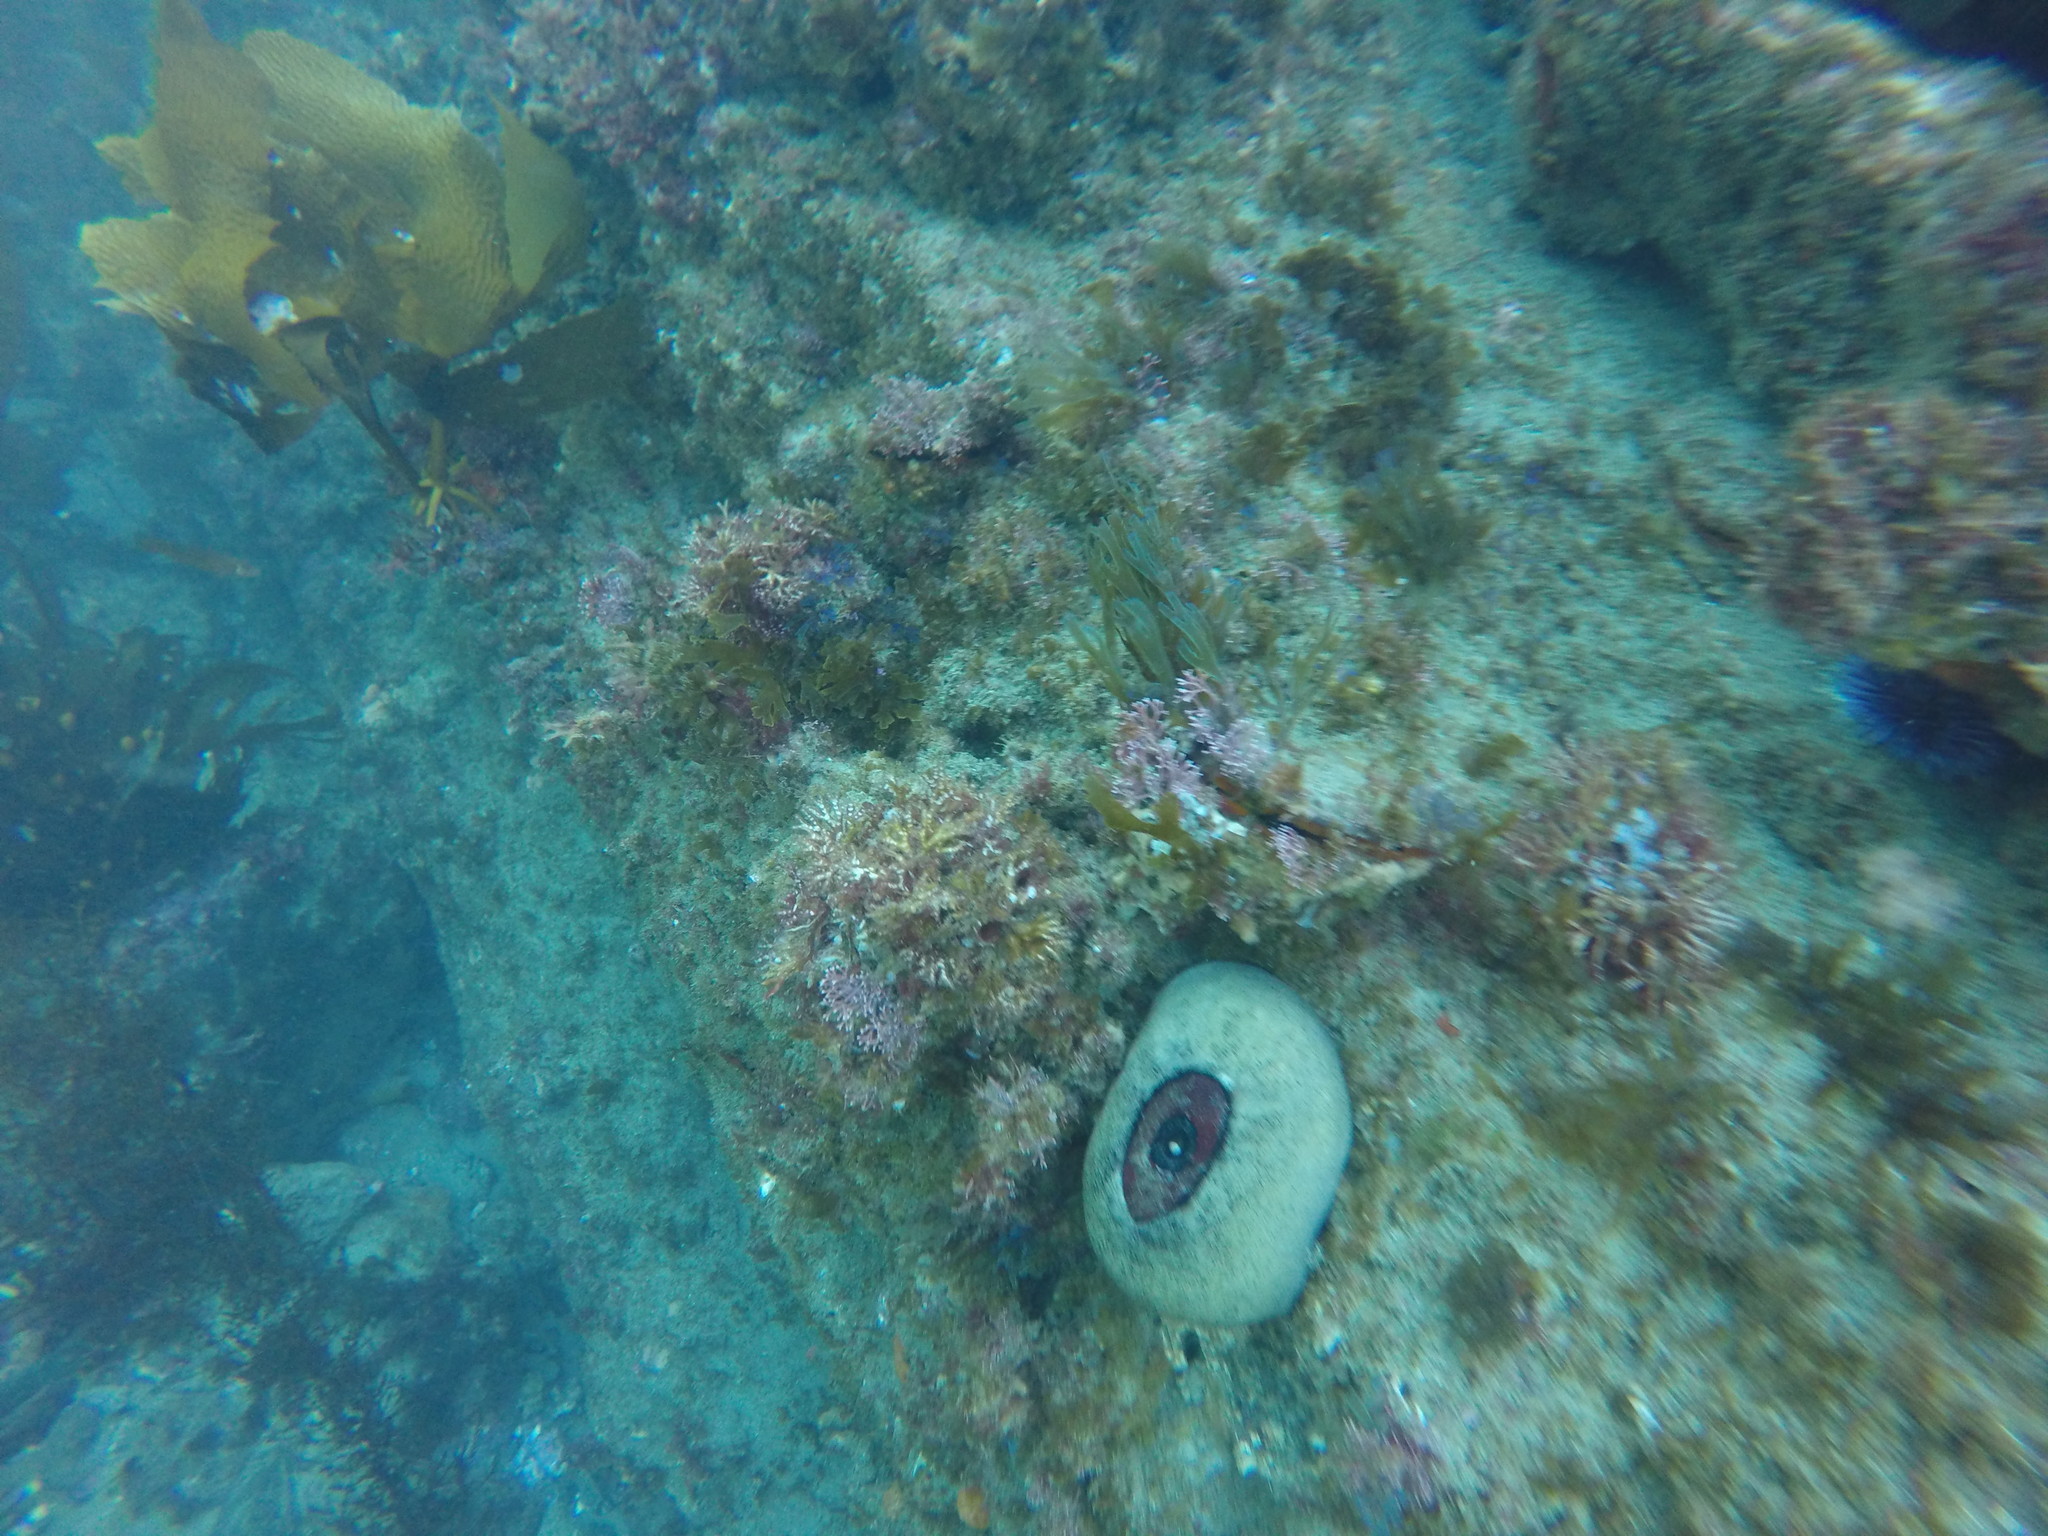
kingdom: Animalia
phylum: Mollusca
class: Gastropoda
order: Lepetellida
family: Fissurellidae
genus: Megathura
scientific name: Megathura crenulata
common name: Giant keyhole limpet
